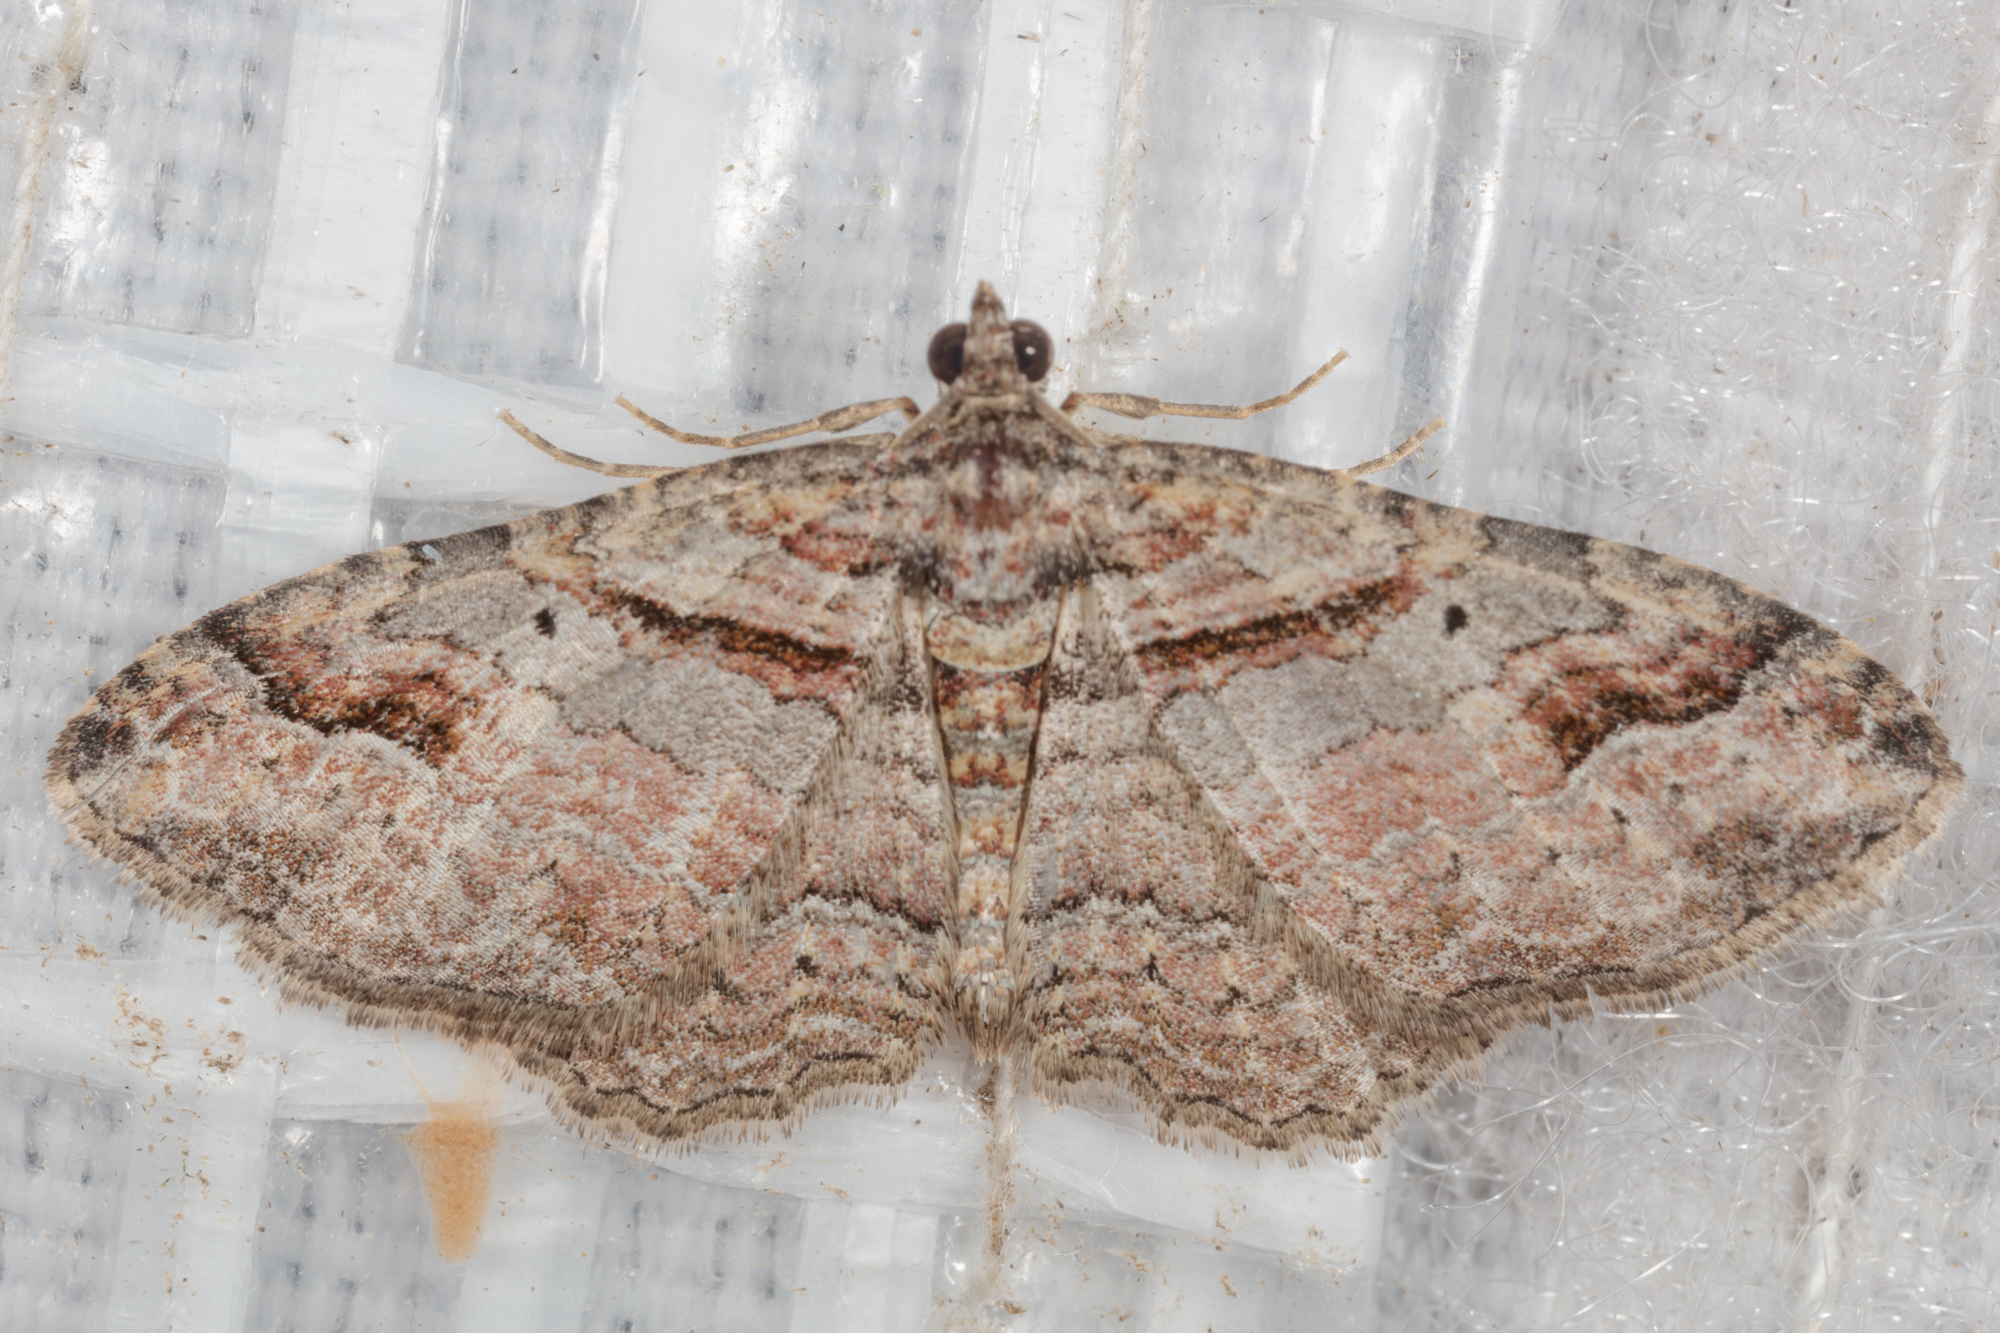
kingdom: Animalia
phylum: Arthropoda
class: Insecta
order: Lepidoptera
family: Geometridae
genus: Costaconvexa
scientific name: Costaconvexa centrostrigaria
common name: Bent-line carpet
